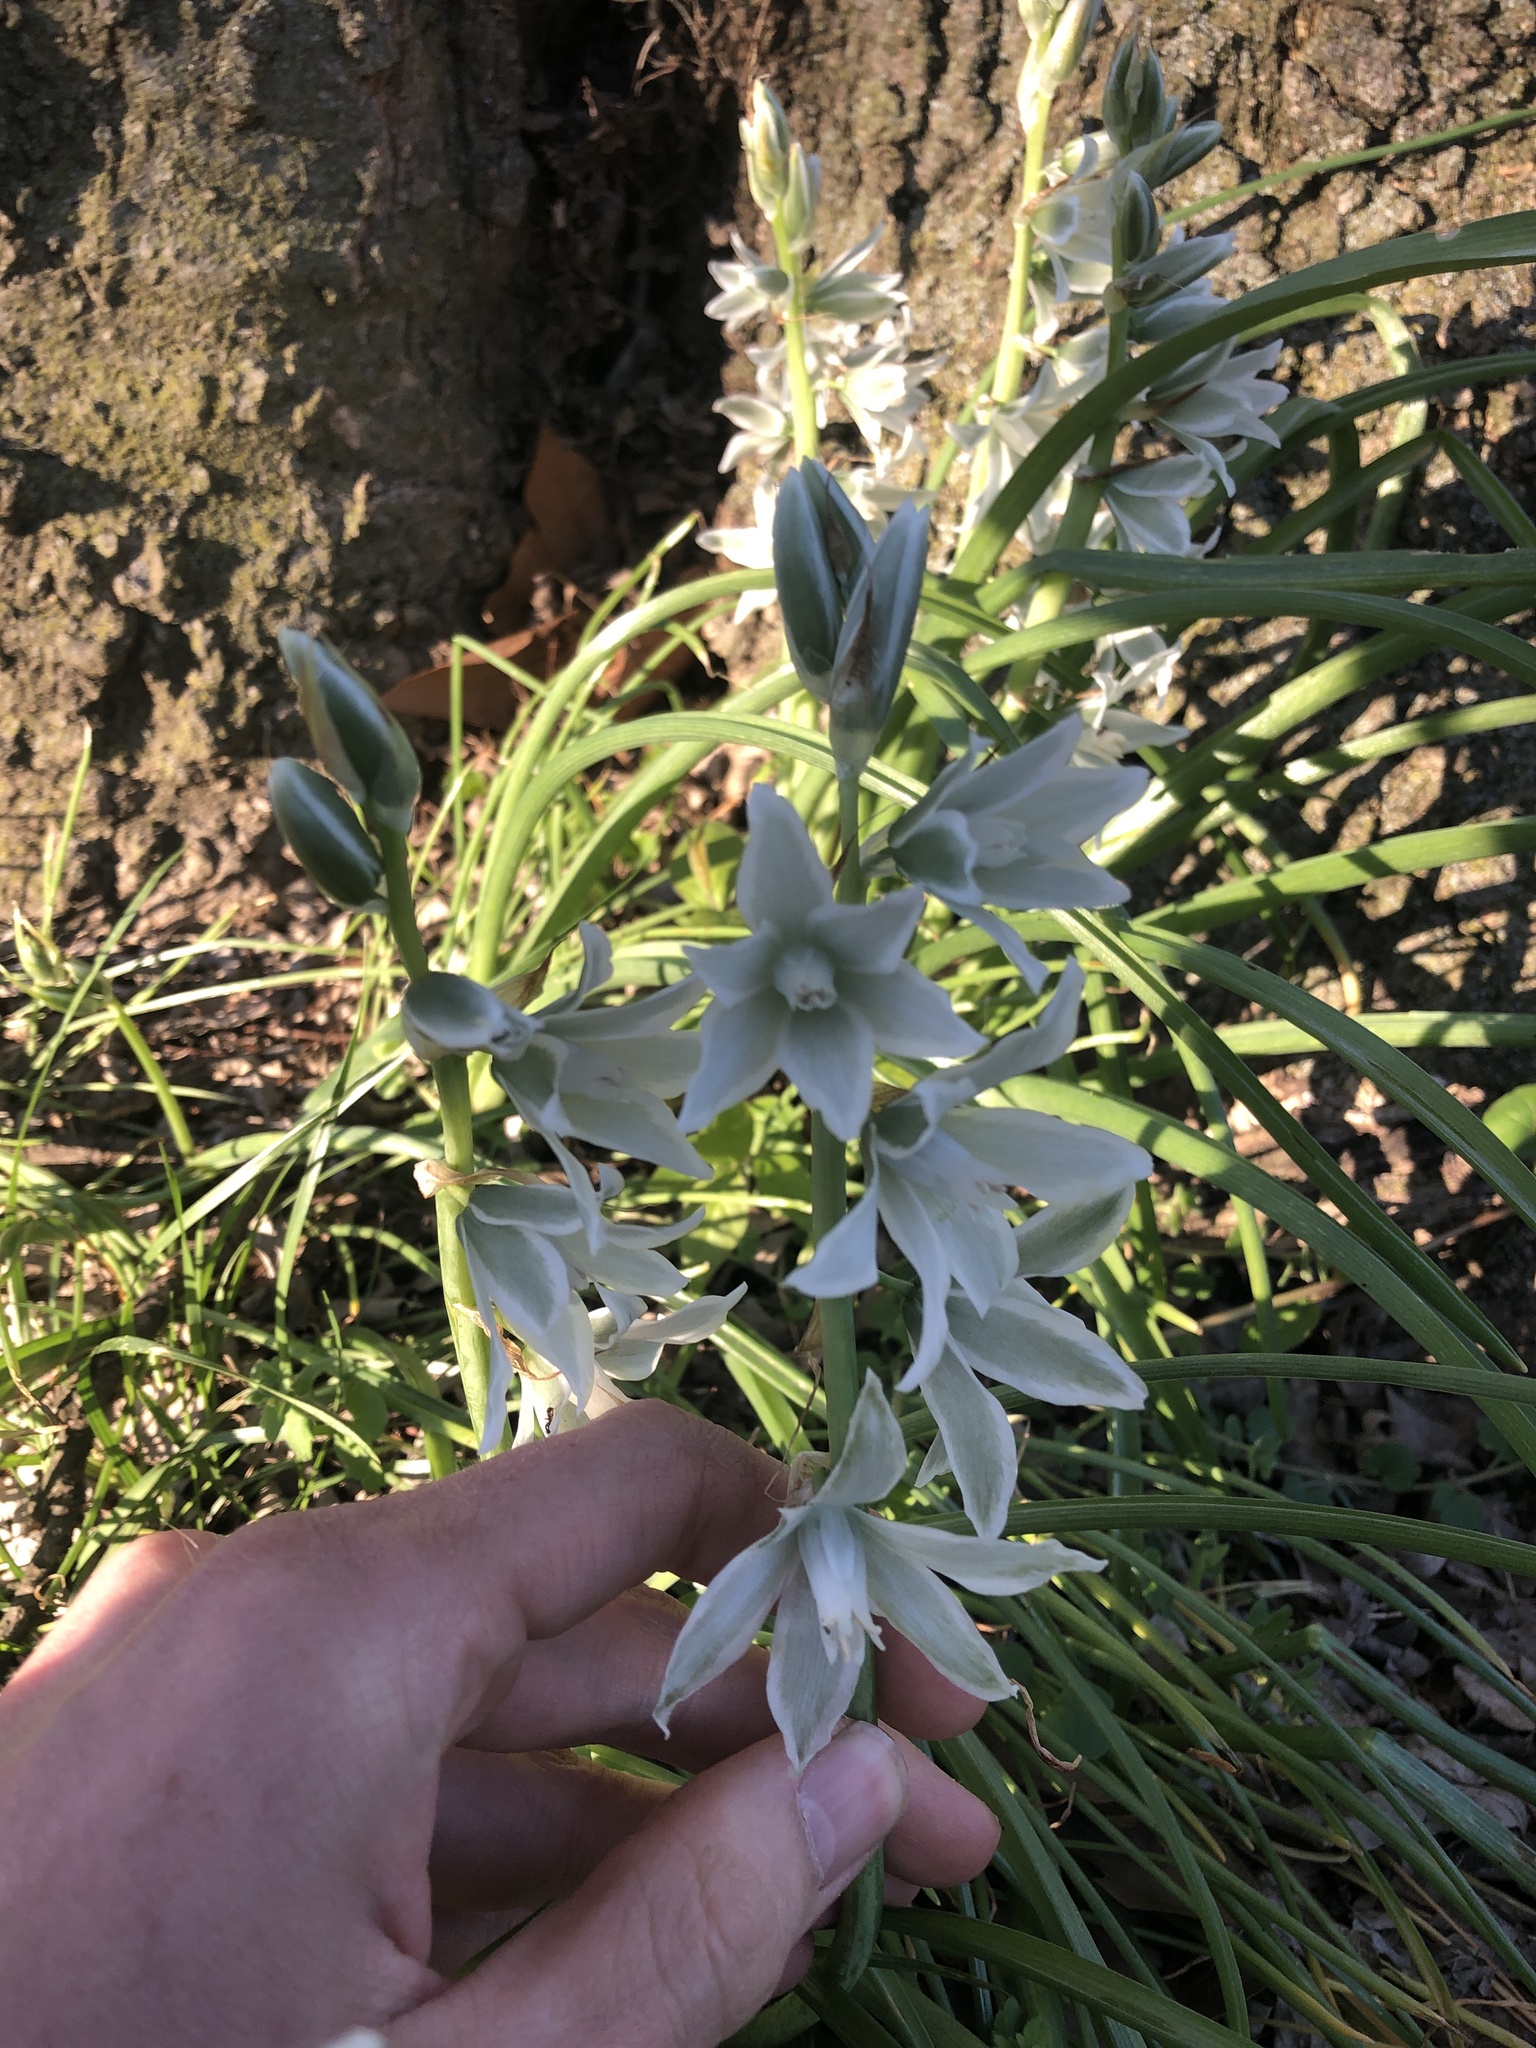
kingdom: Plantae
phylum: Tracheophyta
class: Liliopsida
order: Asparagales
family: Asparagaceae
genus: Ornithogalum
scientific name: Ornithogalum nutans
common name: Drooping star-of-bethlehem
